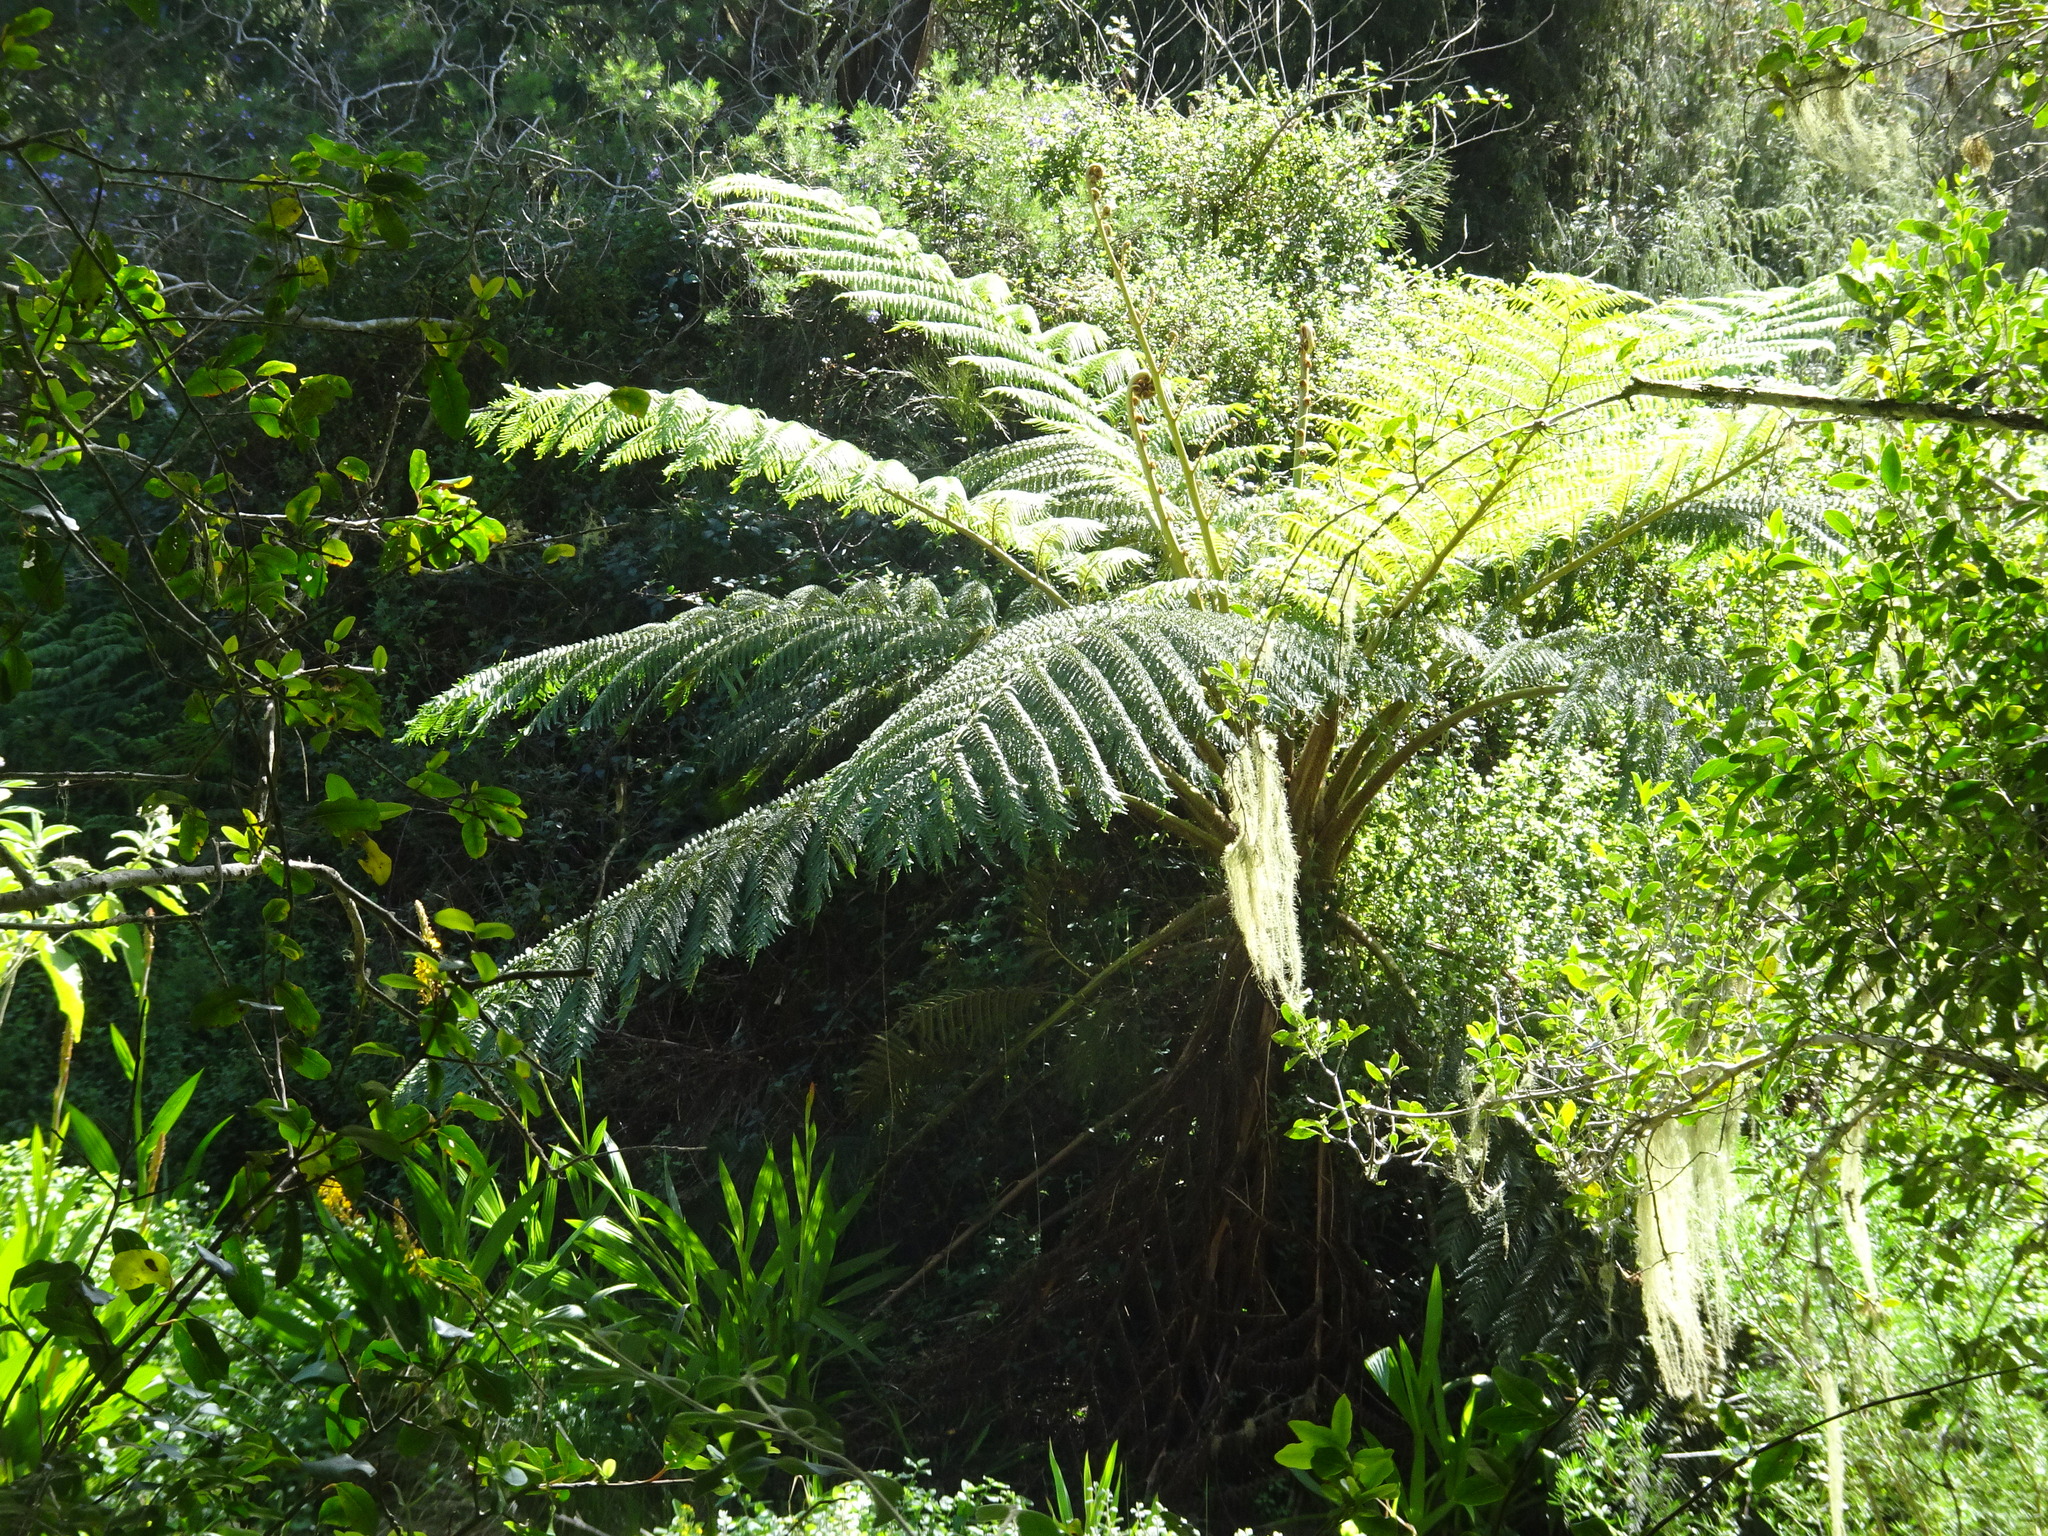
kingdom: Plantae
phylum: Tracheophyta
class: Polypodiopsida
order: Cyatheales
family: Cyatheaceae
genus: Sphaeropteris
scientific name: Sphaeropteris cooperi
